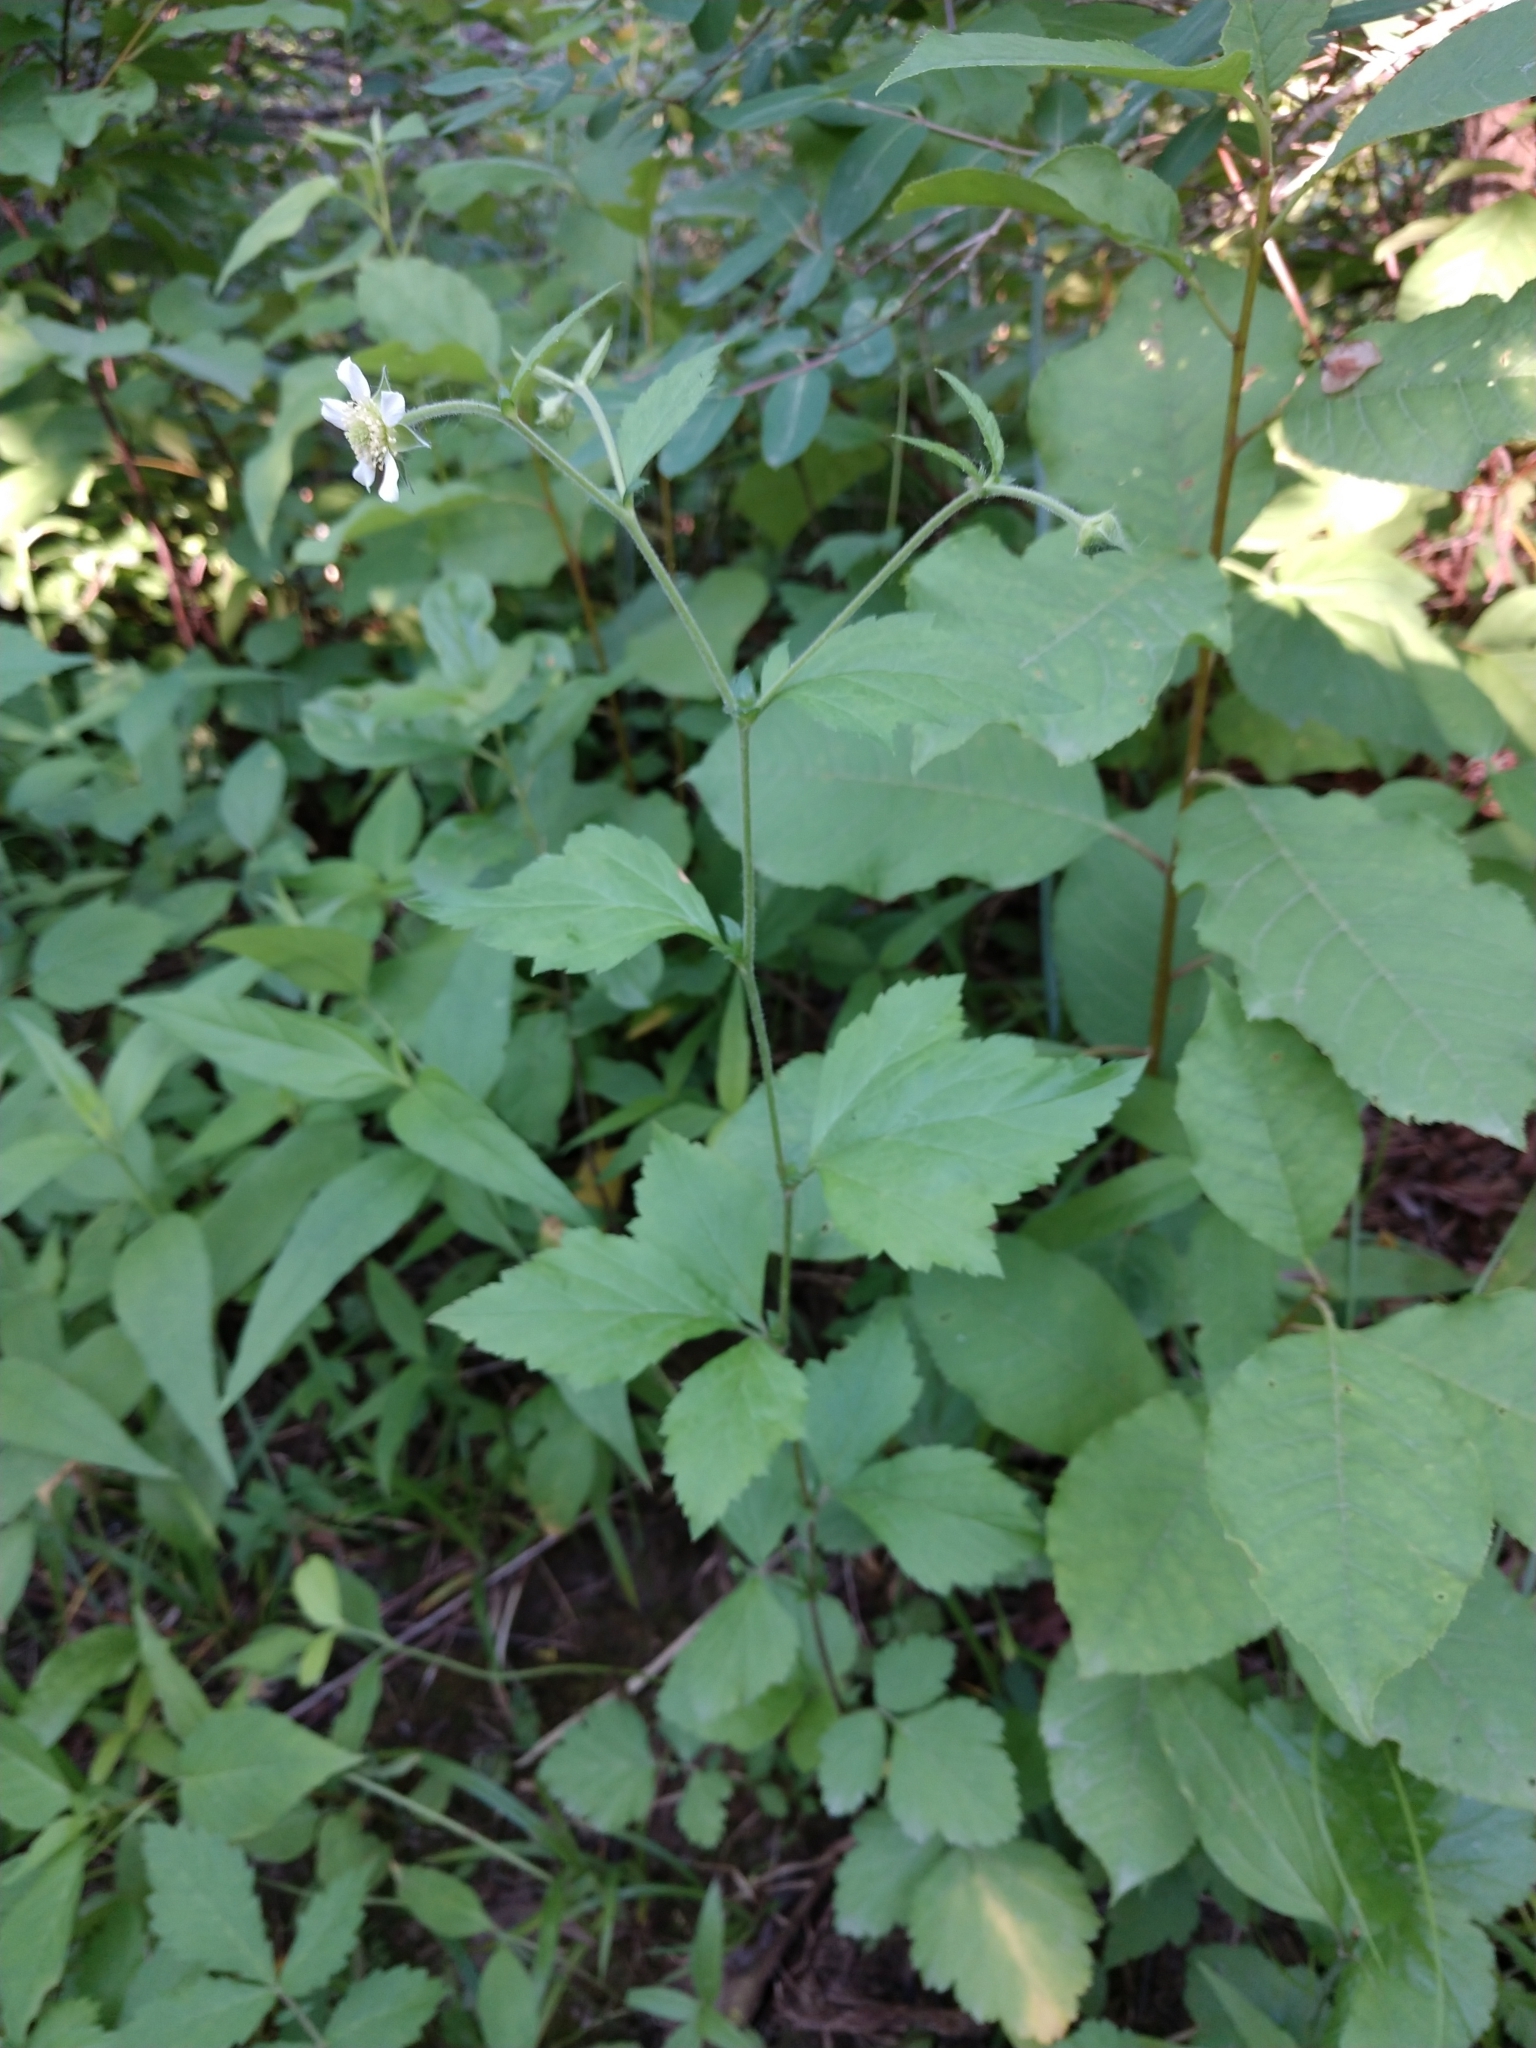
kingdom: Plantae
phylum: Tracheophyta
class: Magnoliopsida
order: Rosales
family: Rosaceae
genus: Geum
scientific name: Geum canadense
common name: White avens
